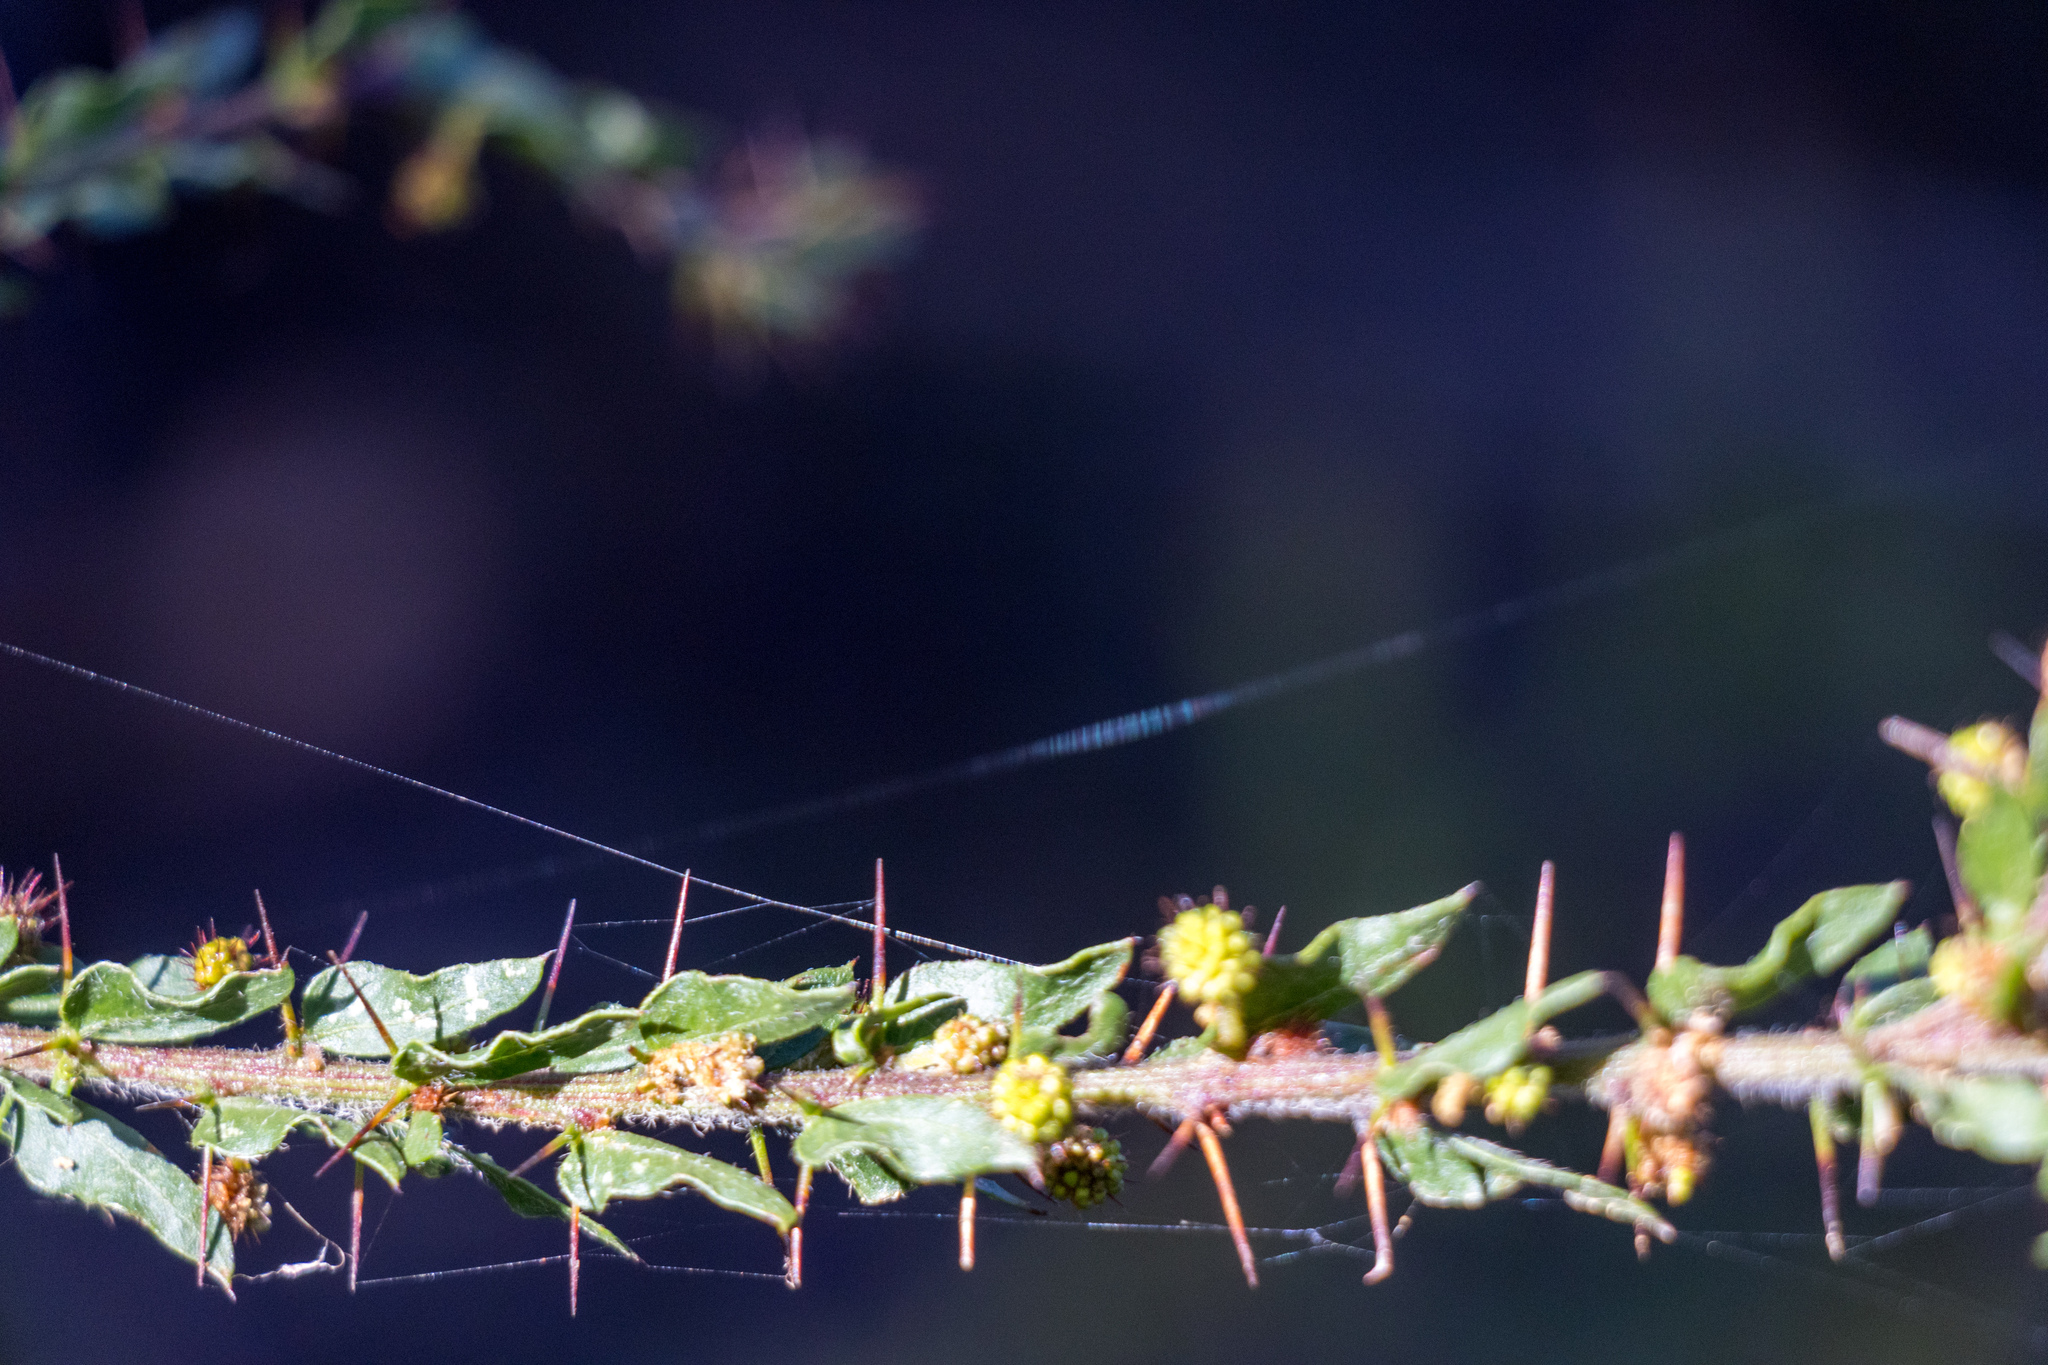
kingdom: Plantae
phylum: Tracheophyta
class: Magnoliopsida
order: Fabales
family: Fabaceae
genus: Acacia
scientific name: Acacia paradoxa
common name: Paradox acacia
